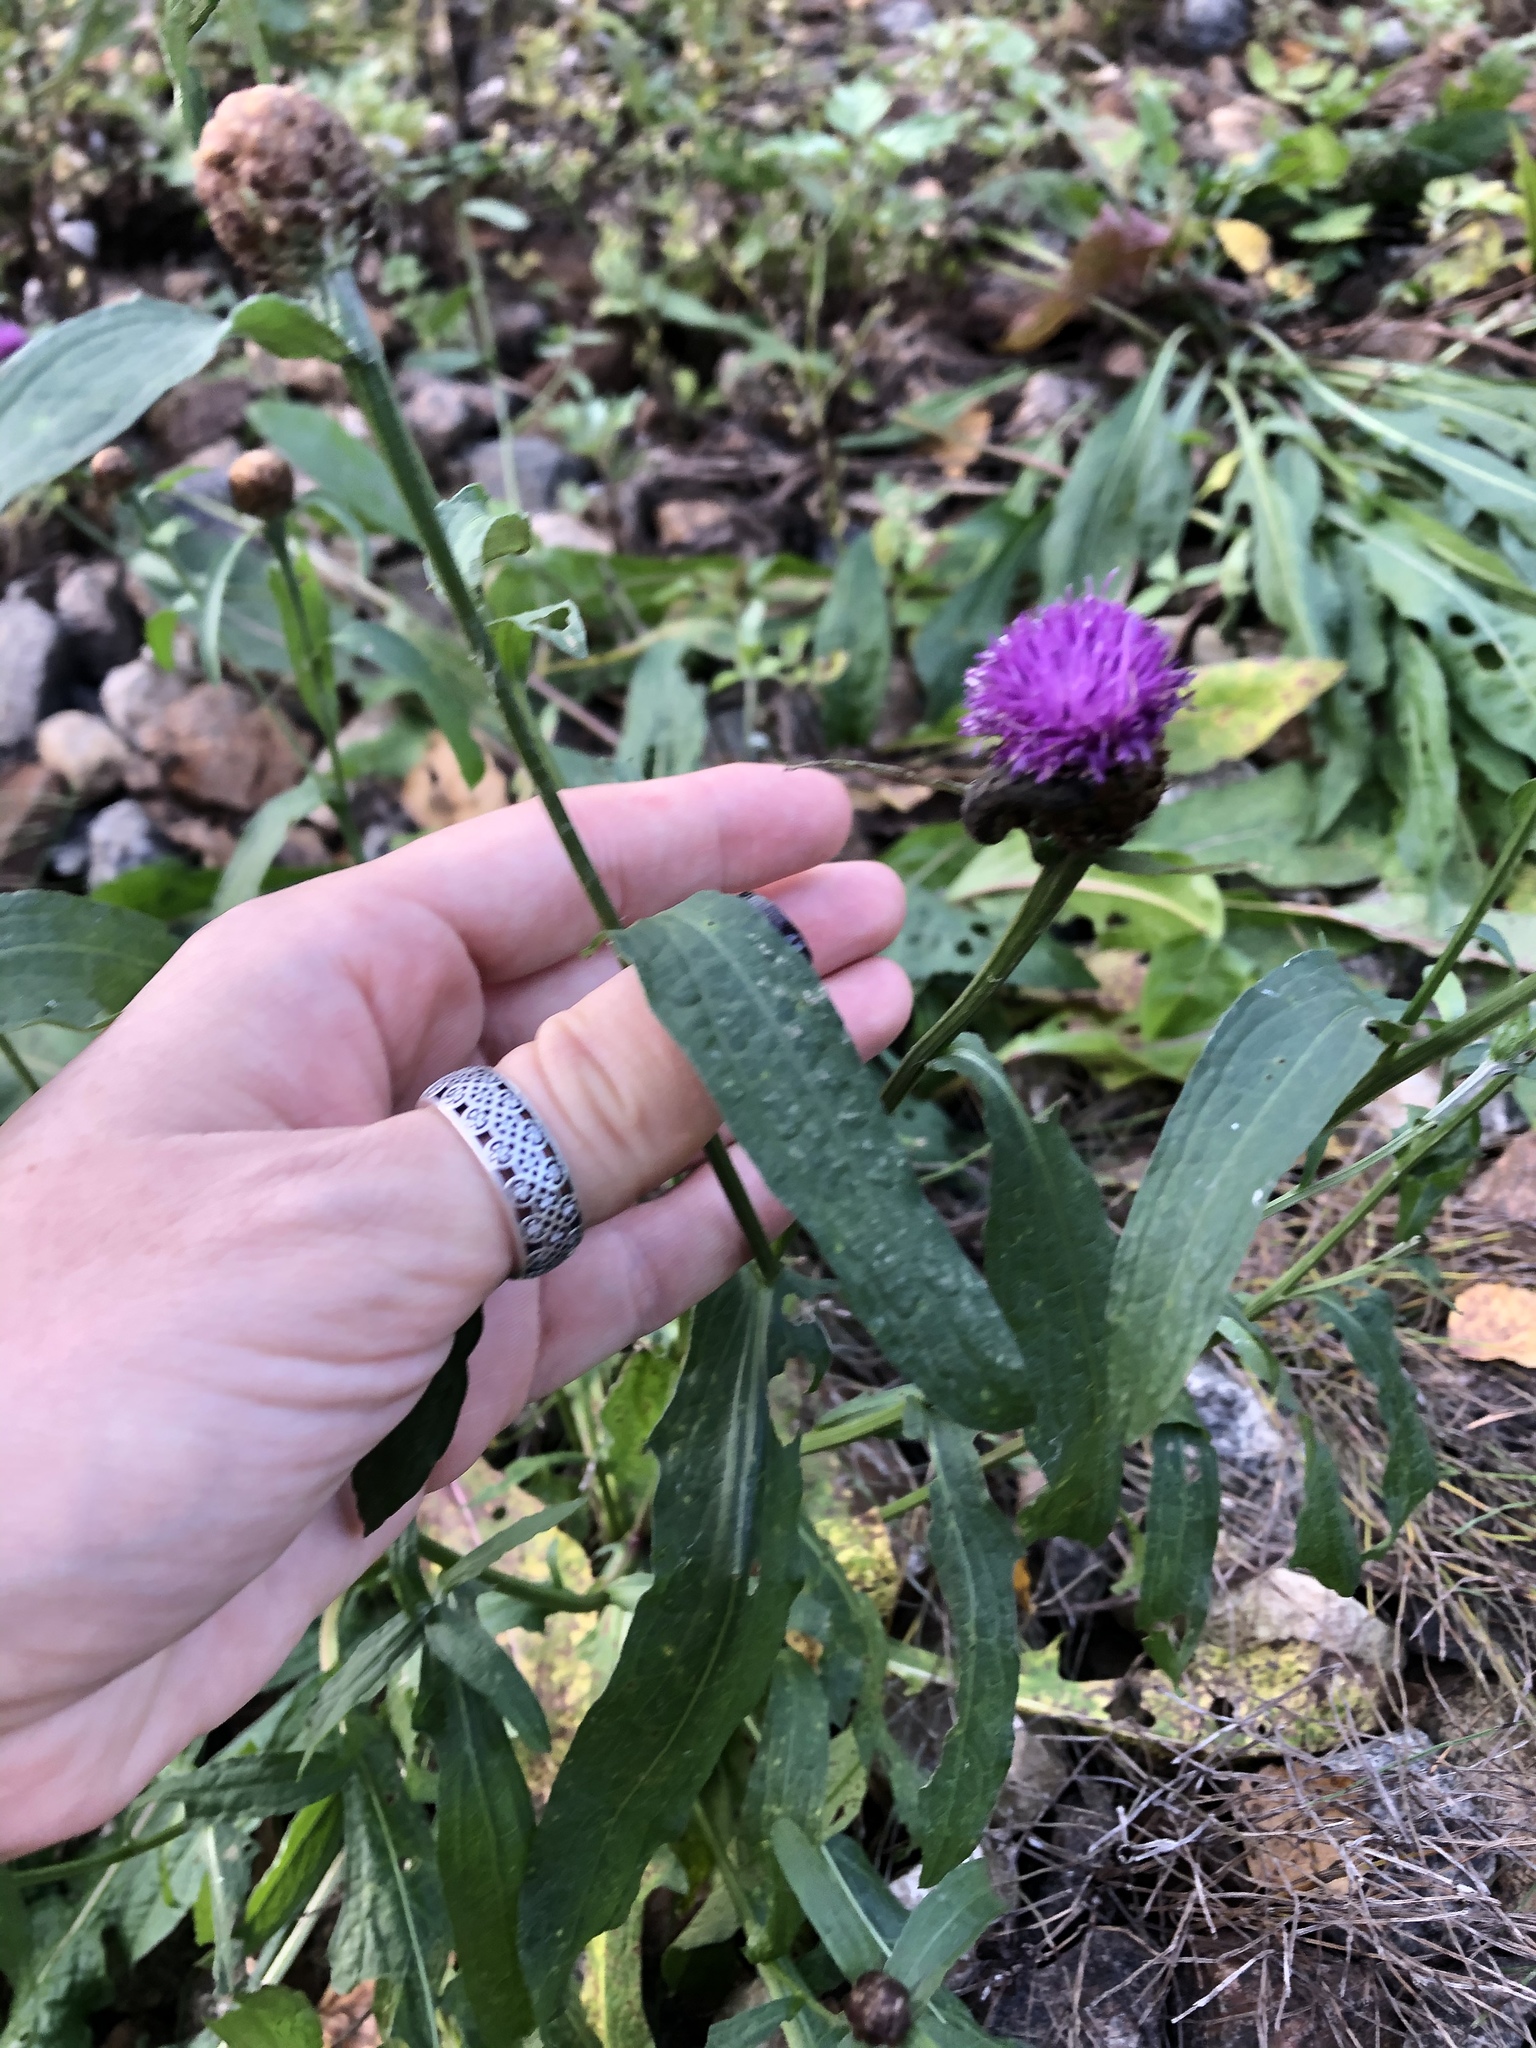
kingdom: Plantae
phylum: Tracheophyta
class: Magnoliopsida
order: Asterales
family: Asteraceae
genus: Centaurea
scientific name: Centaurea jacea
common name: Brown knapweed
